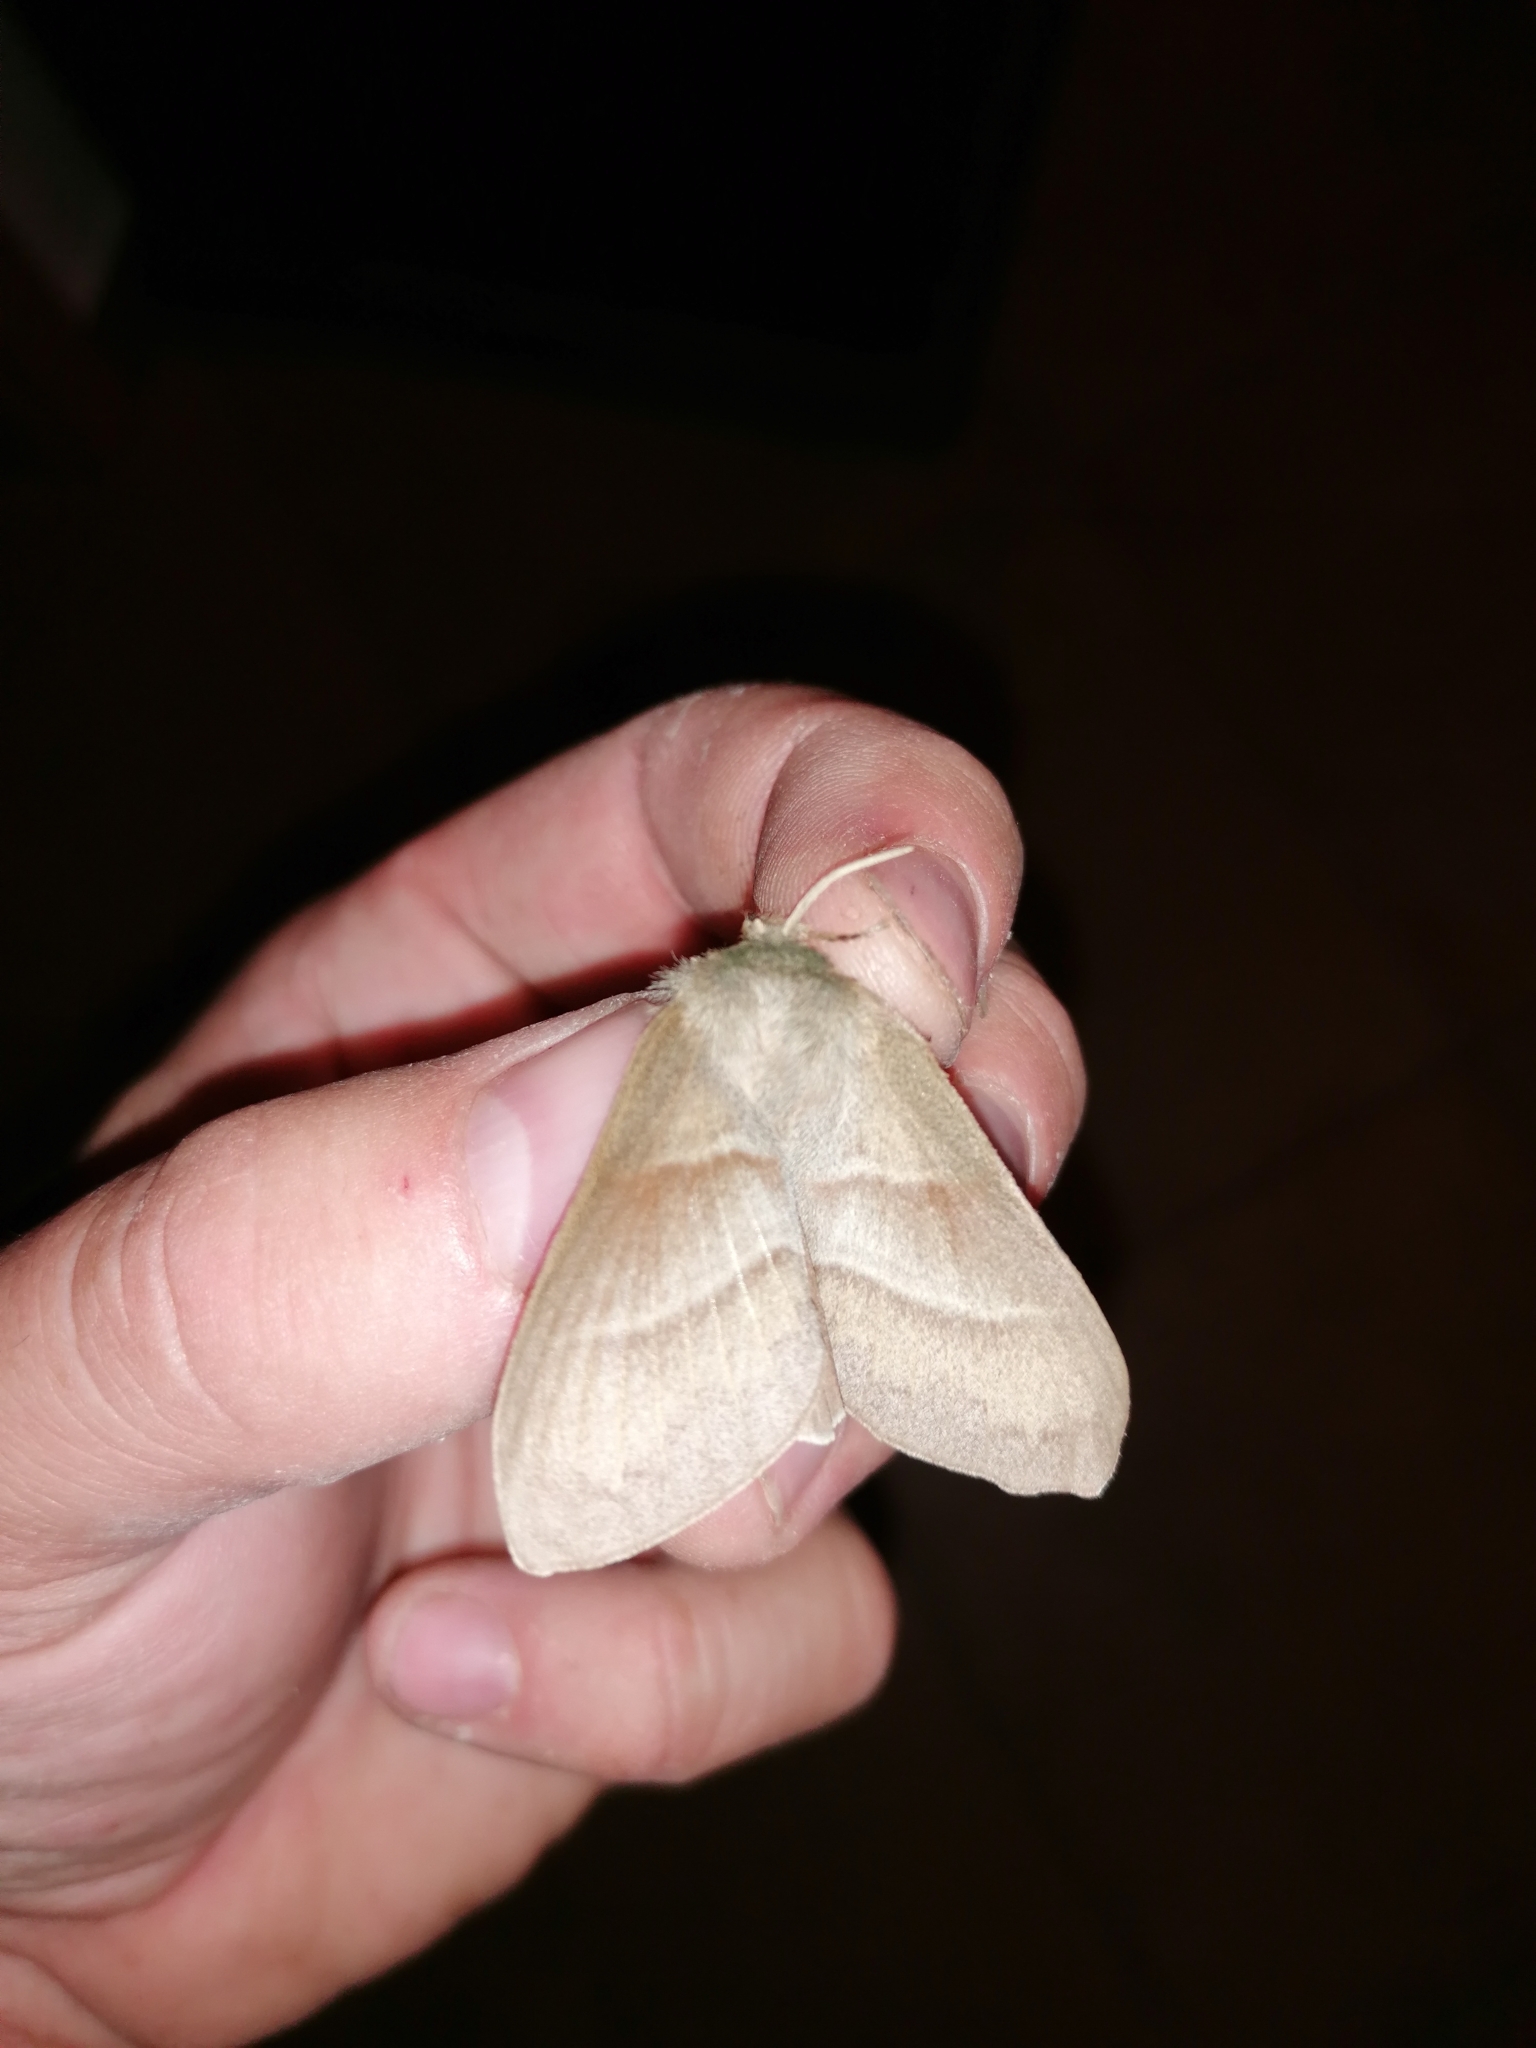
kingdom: Animalia
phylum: Arthropoda
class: Insecta
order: Lepidoptera
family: Lasiocampidae
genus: Macrothylacia
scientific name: Macrothylacia rubi
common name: Fox moth
